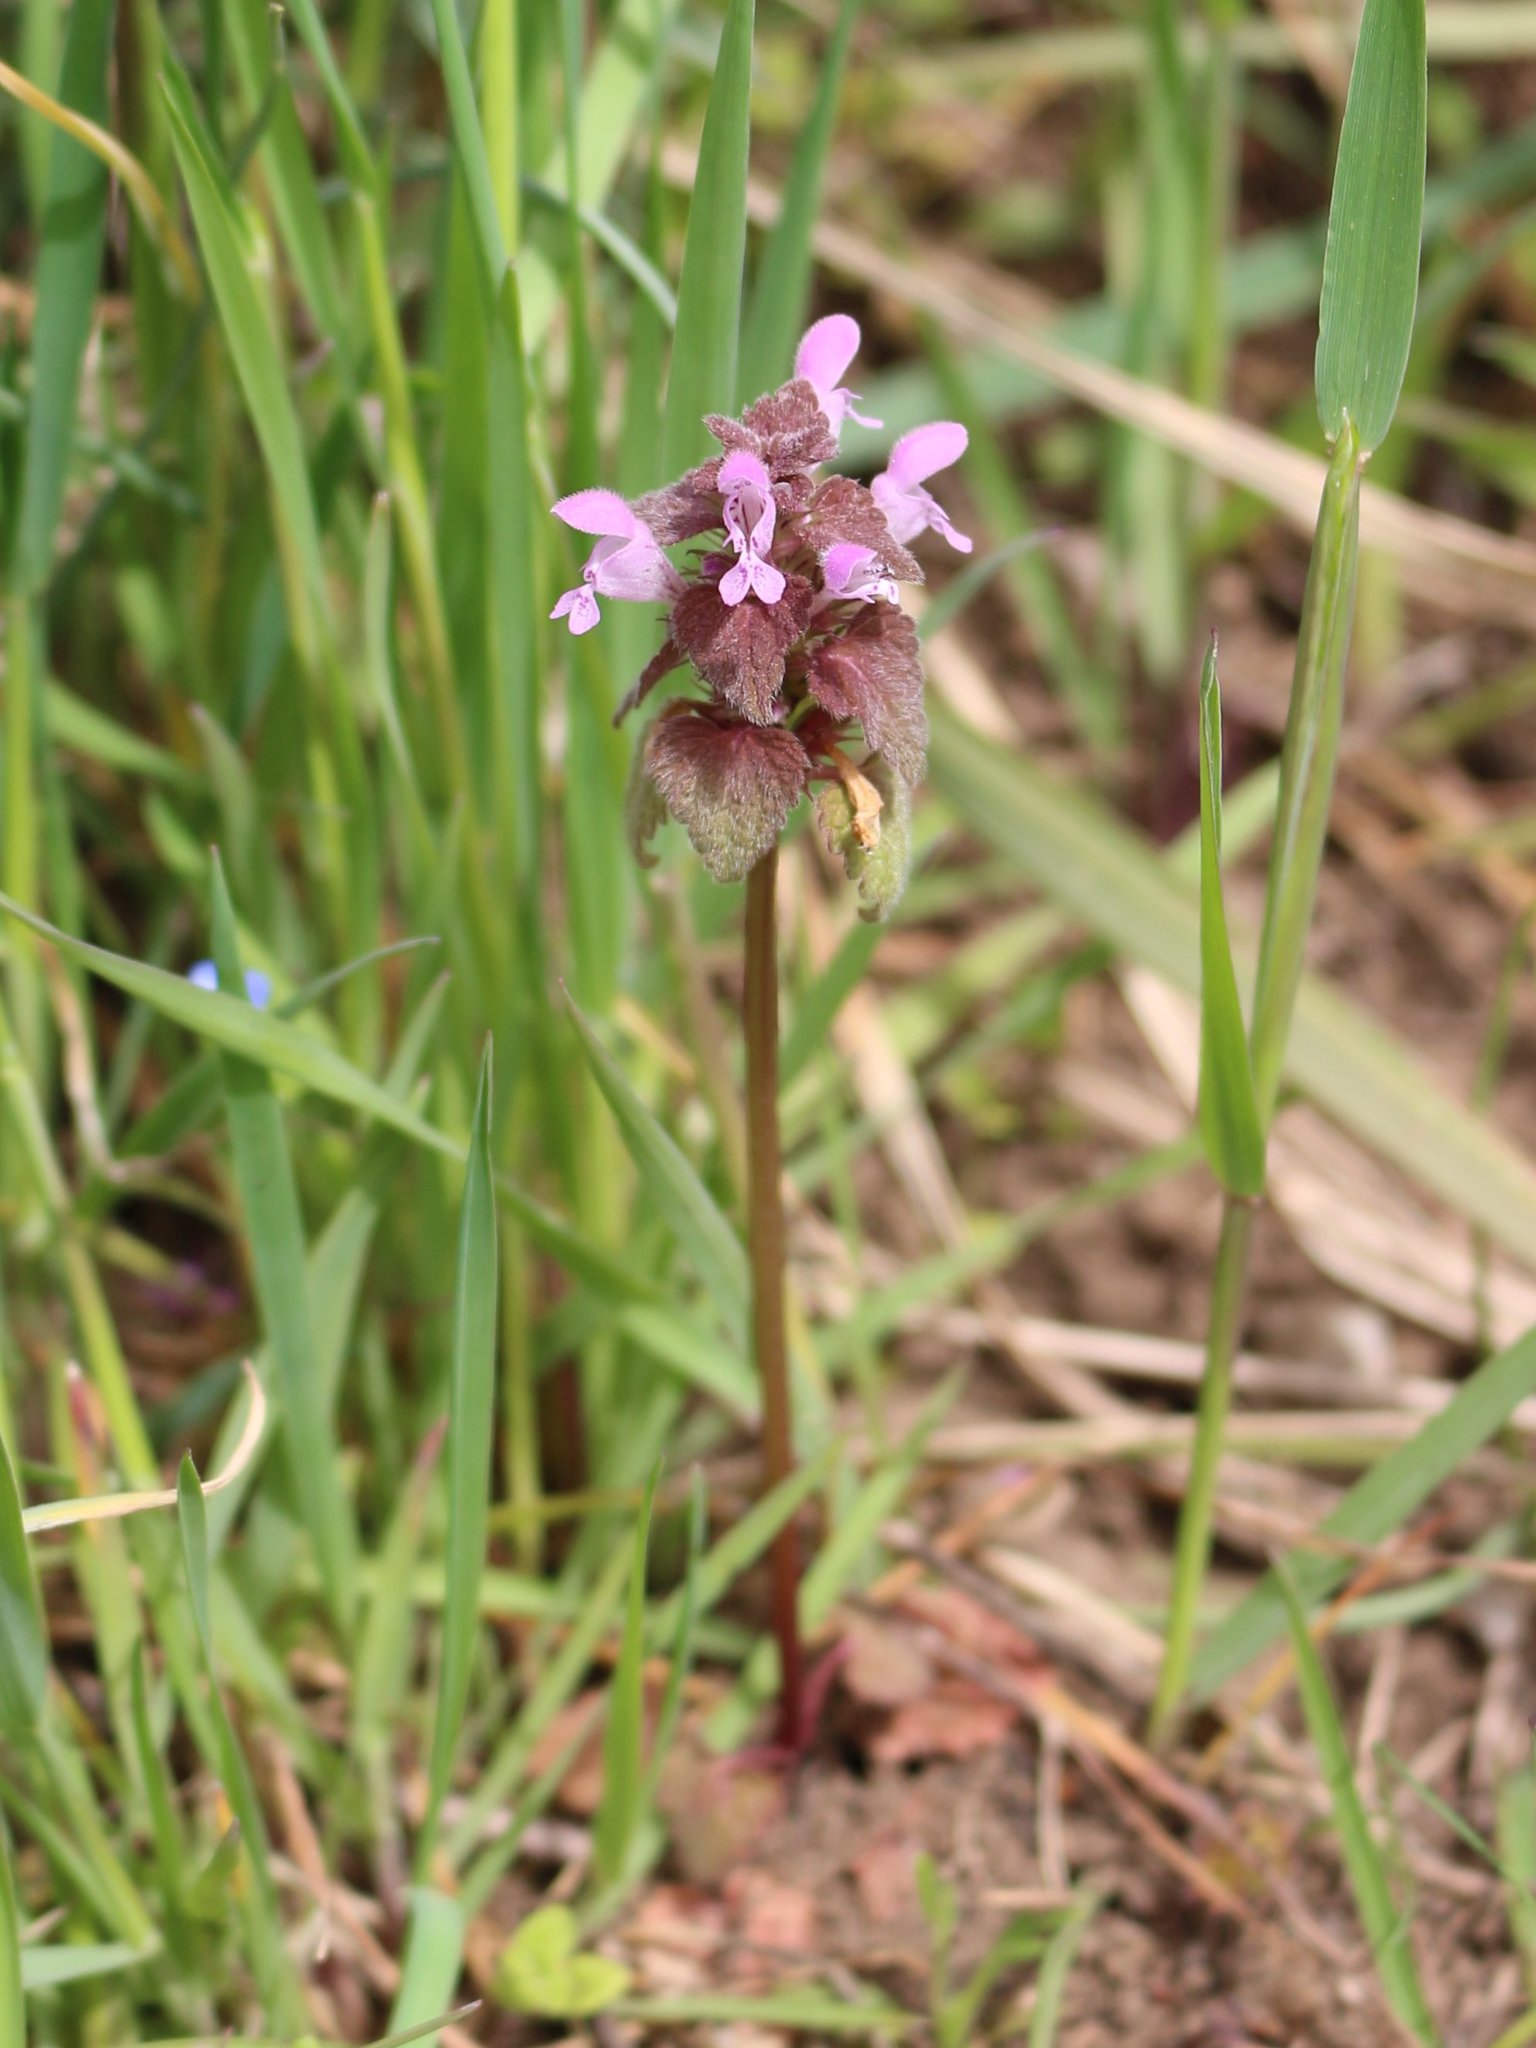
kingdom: Plantae
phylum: Tracheophyta
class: Magnoliopsida
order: Lamiales
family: Lamiaceae
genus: Lamium
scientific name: Lamium purpureum
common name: Red dead-nettle
